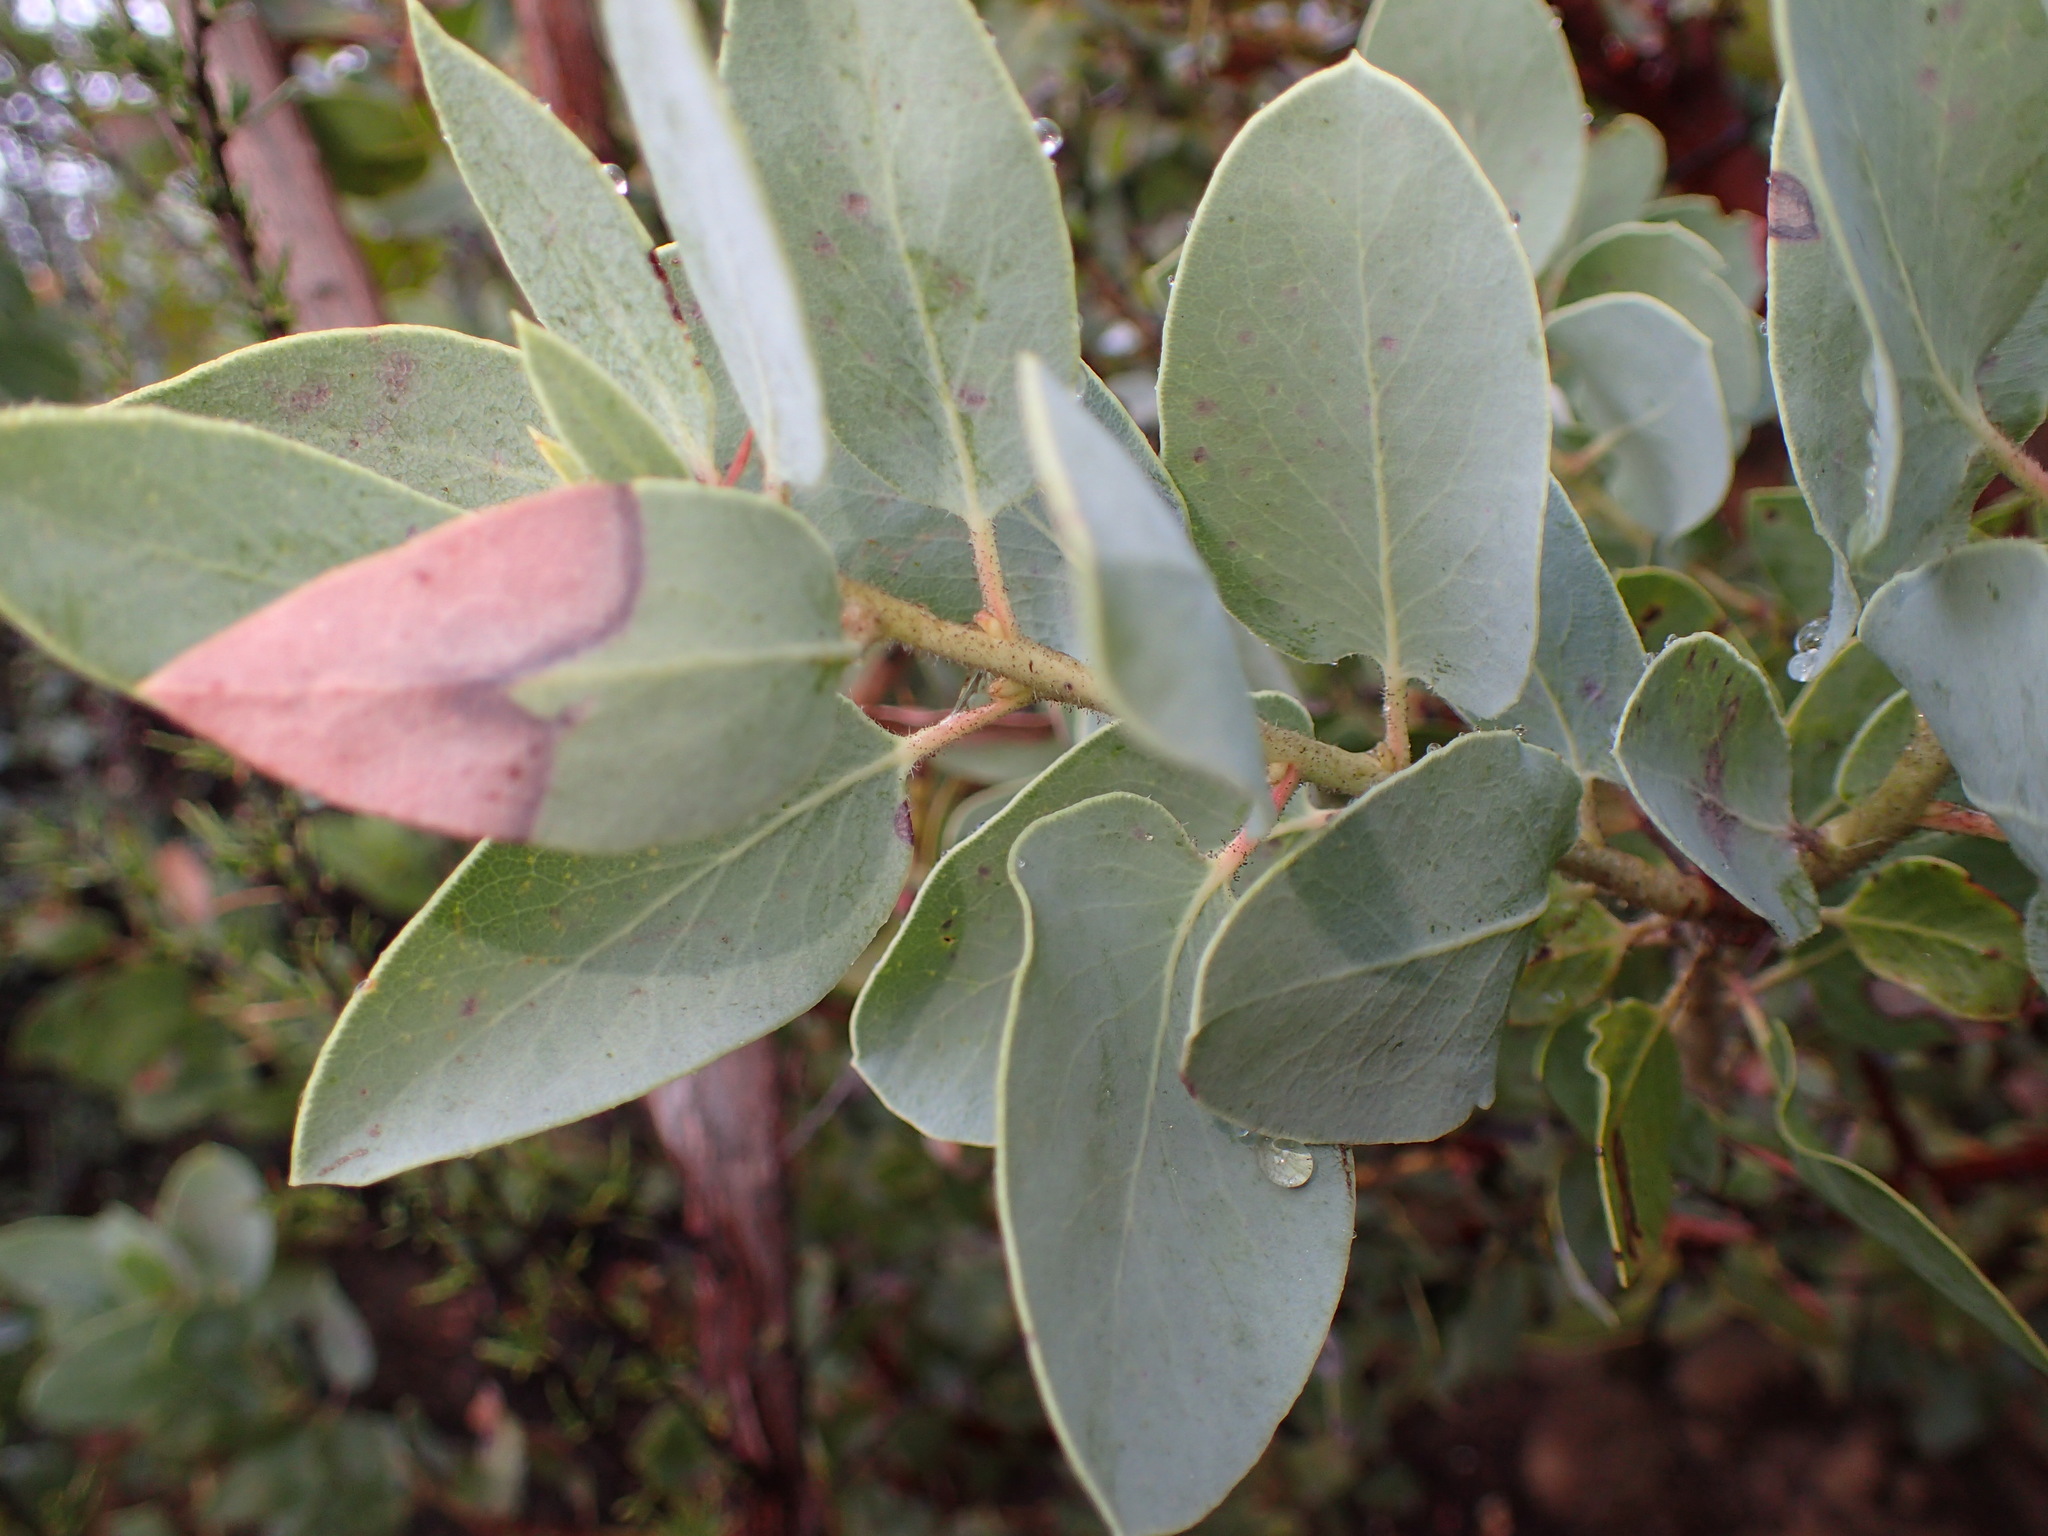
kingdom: Plantae
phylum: Tracheophyta
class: Magnoliopsida
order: Ericales
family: Ericaceae
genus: Arctostaphylos
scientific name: Arctostaphylos glauca
